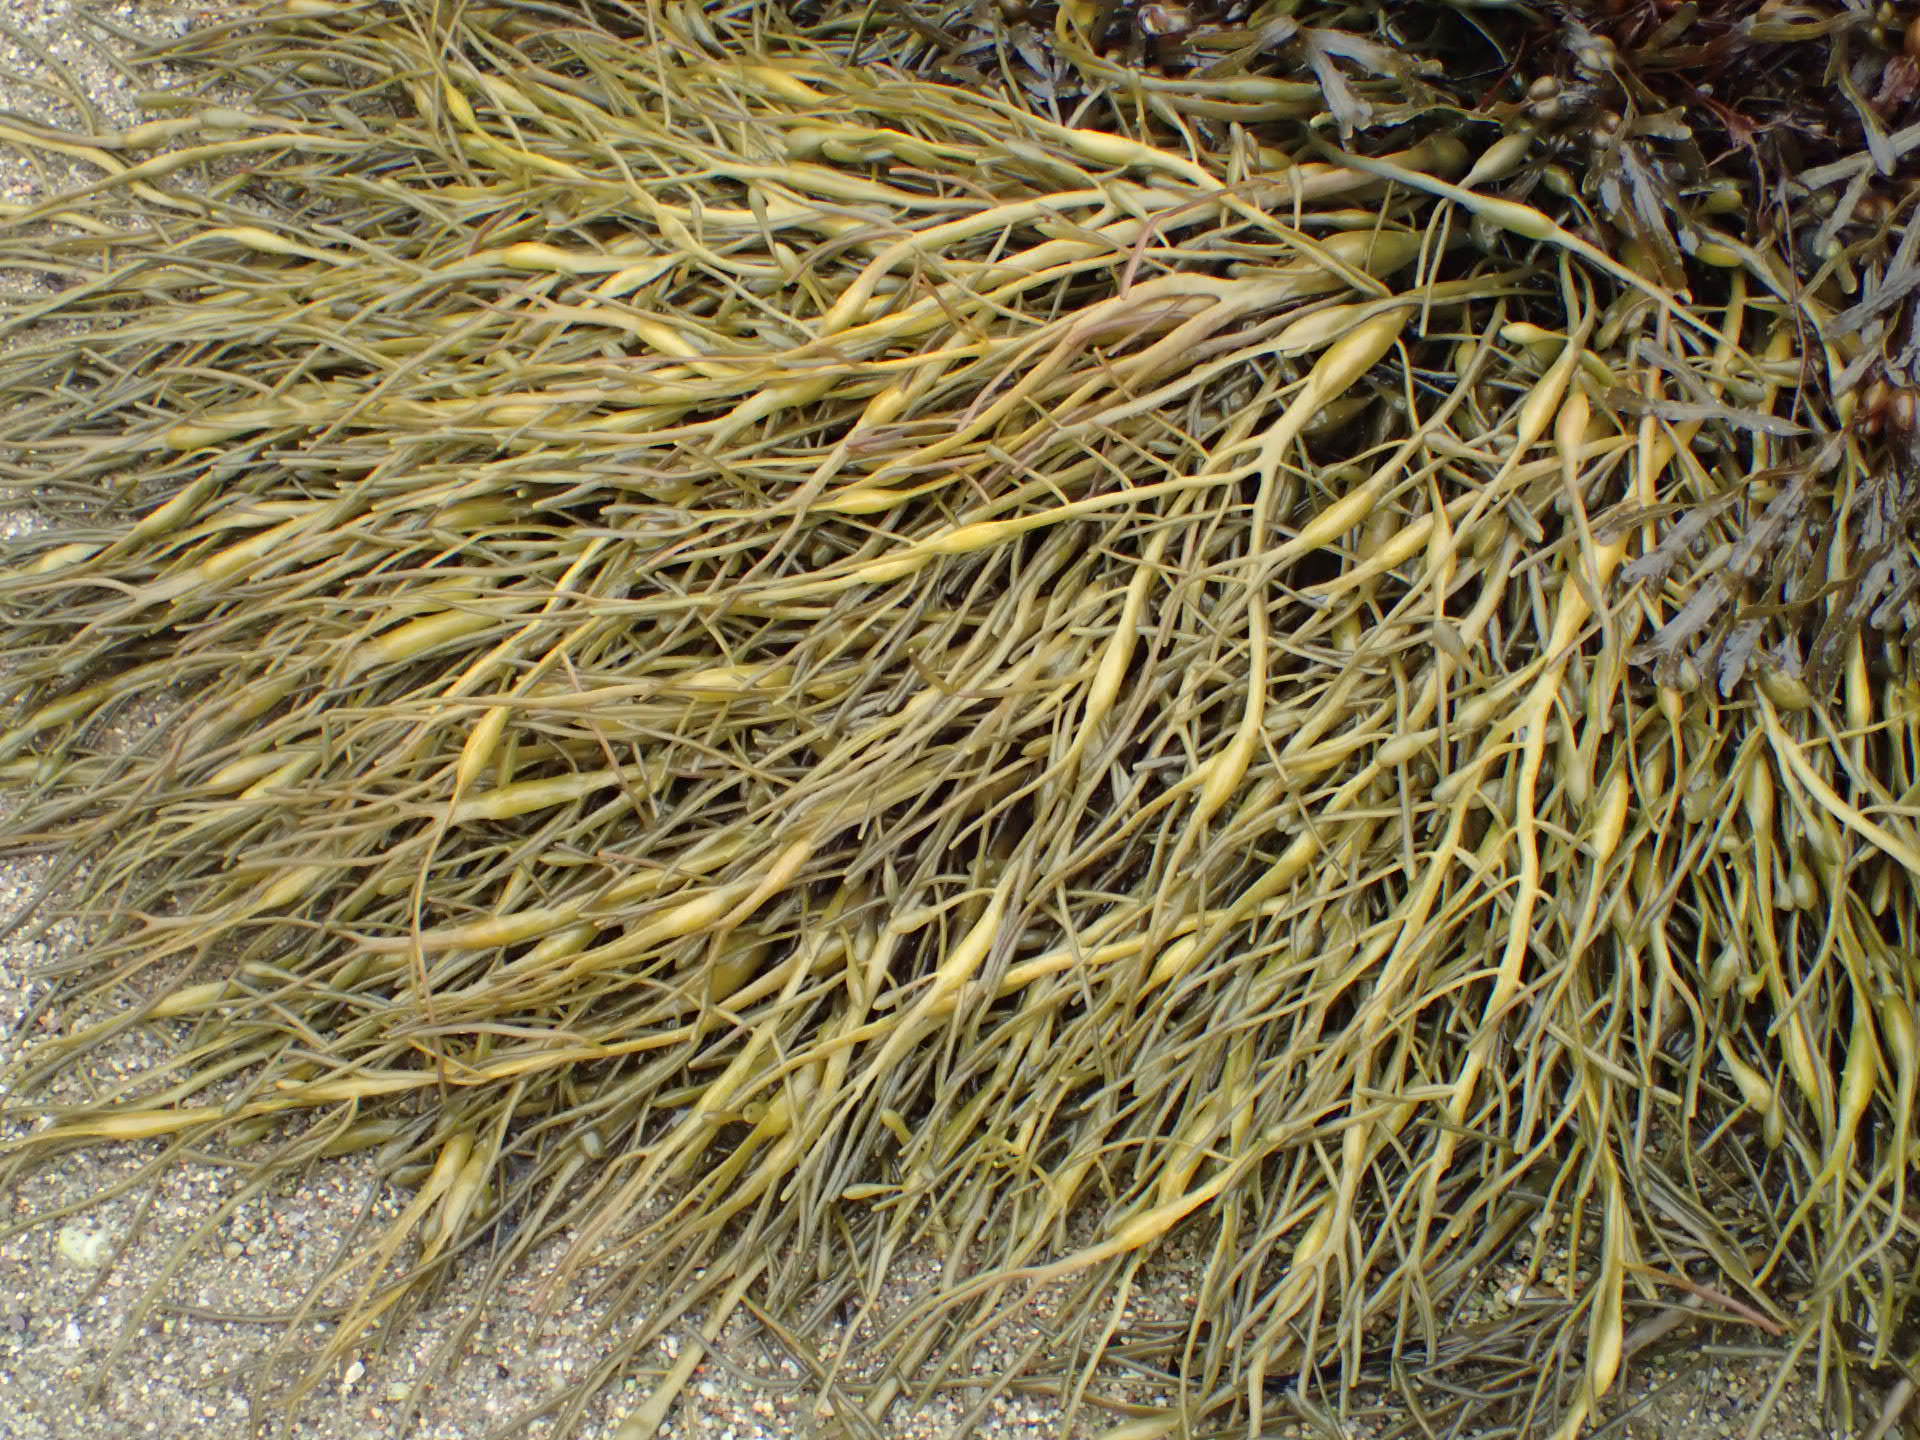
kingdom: Chromista
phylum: Ochrophyta
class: Phaeophyceae
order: Fucales
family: Fucaceae
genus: Ascophyllum
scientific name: Ascophyllum nodosum
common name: Knotted wrack
